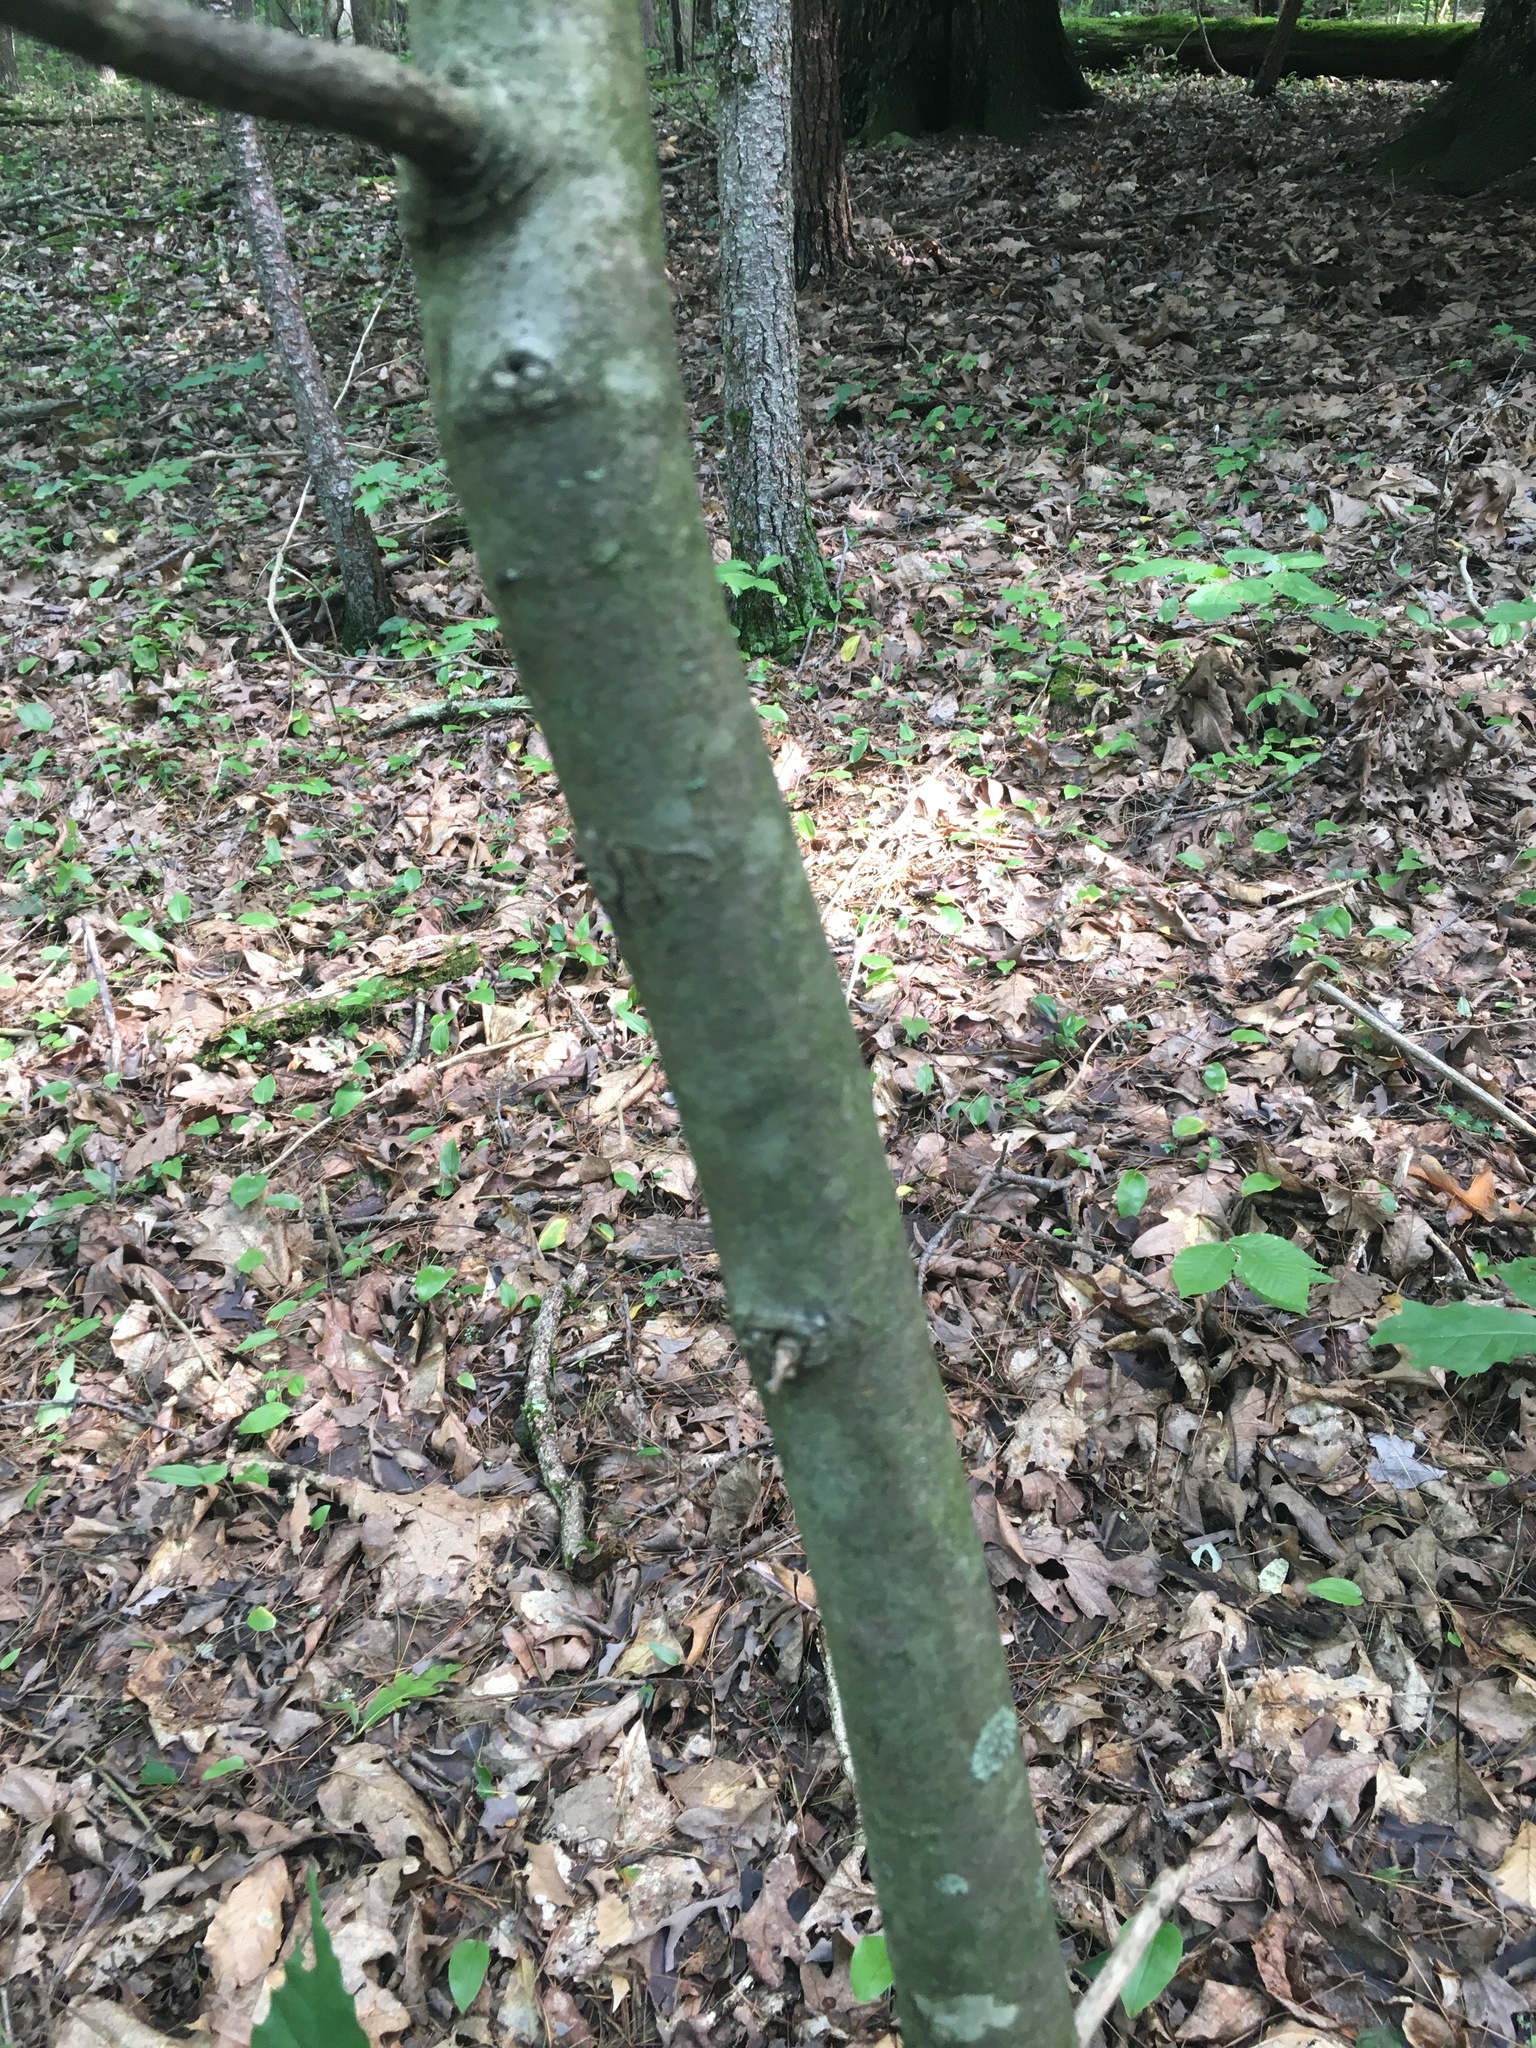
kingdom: Plantae
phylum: Tracheophyta
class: Magnoliopsida
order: Fagales
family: Fagaceae
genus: Castanea
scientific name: Castanea dentata
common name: American chestnut
